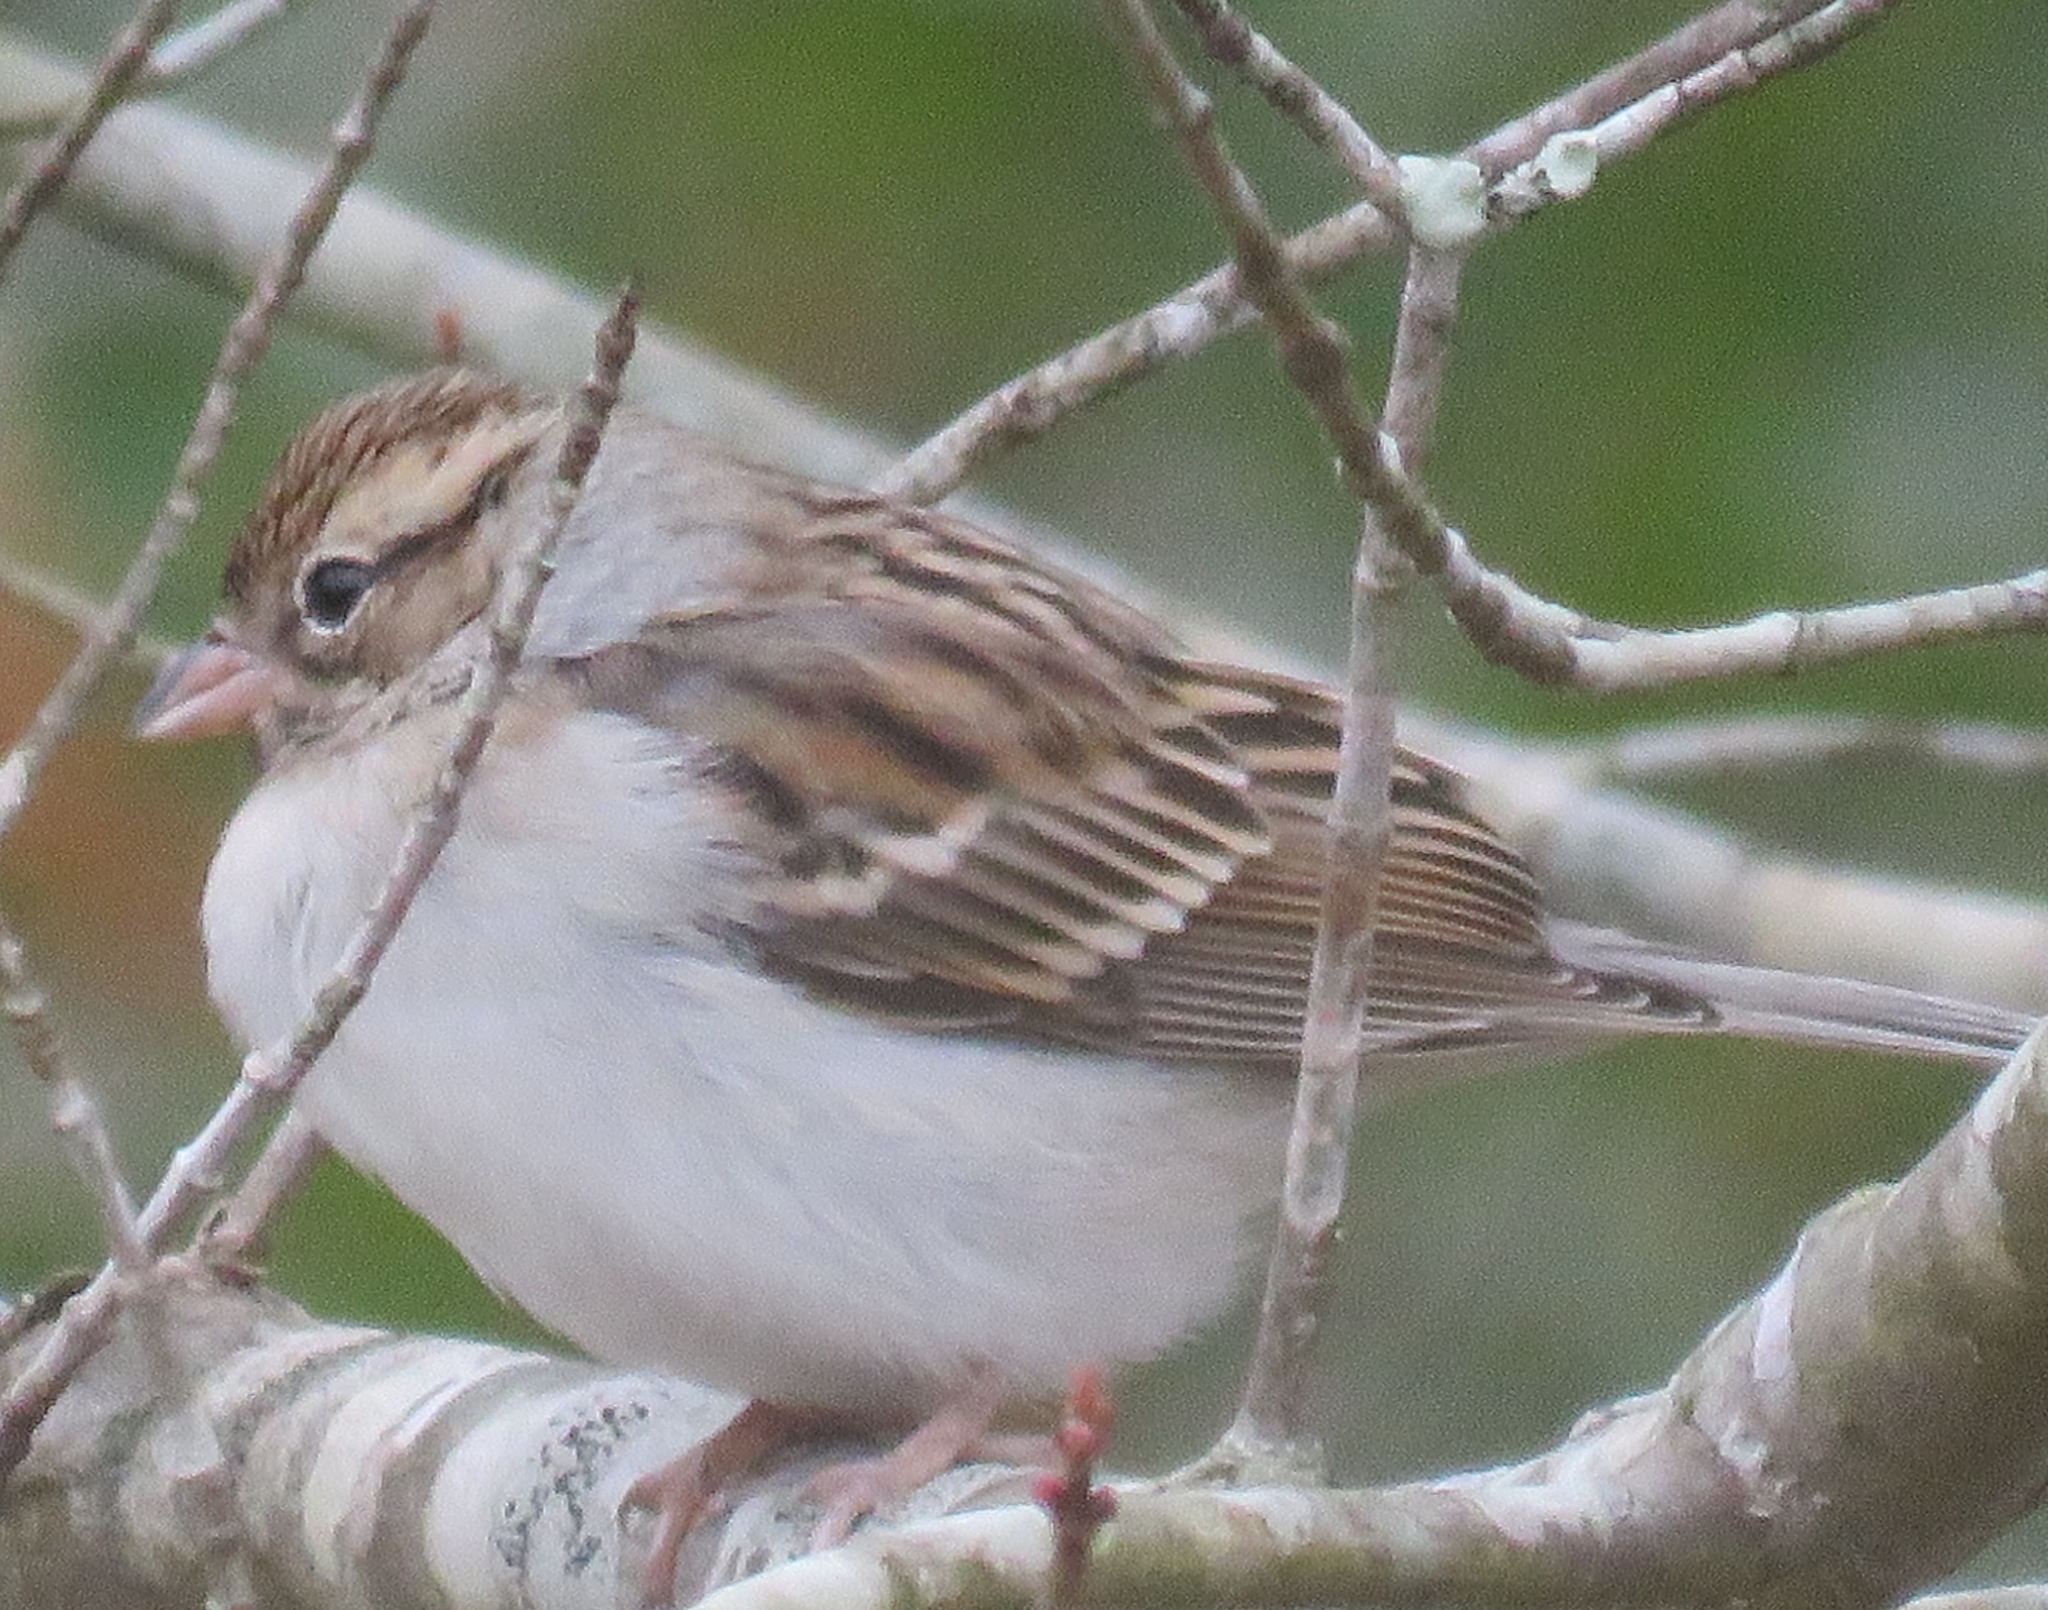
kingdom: Animalia
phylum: Chordata
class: Aves
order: Passeriformes
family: Passerellidae
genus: Spizella
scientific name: Spizella passerina
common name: Chipping sparrow
